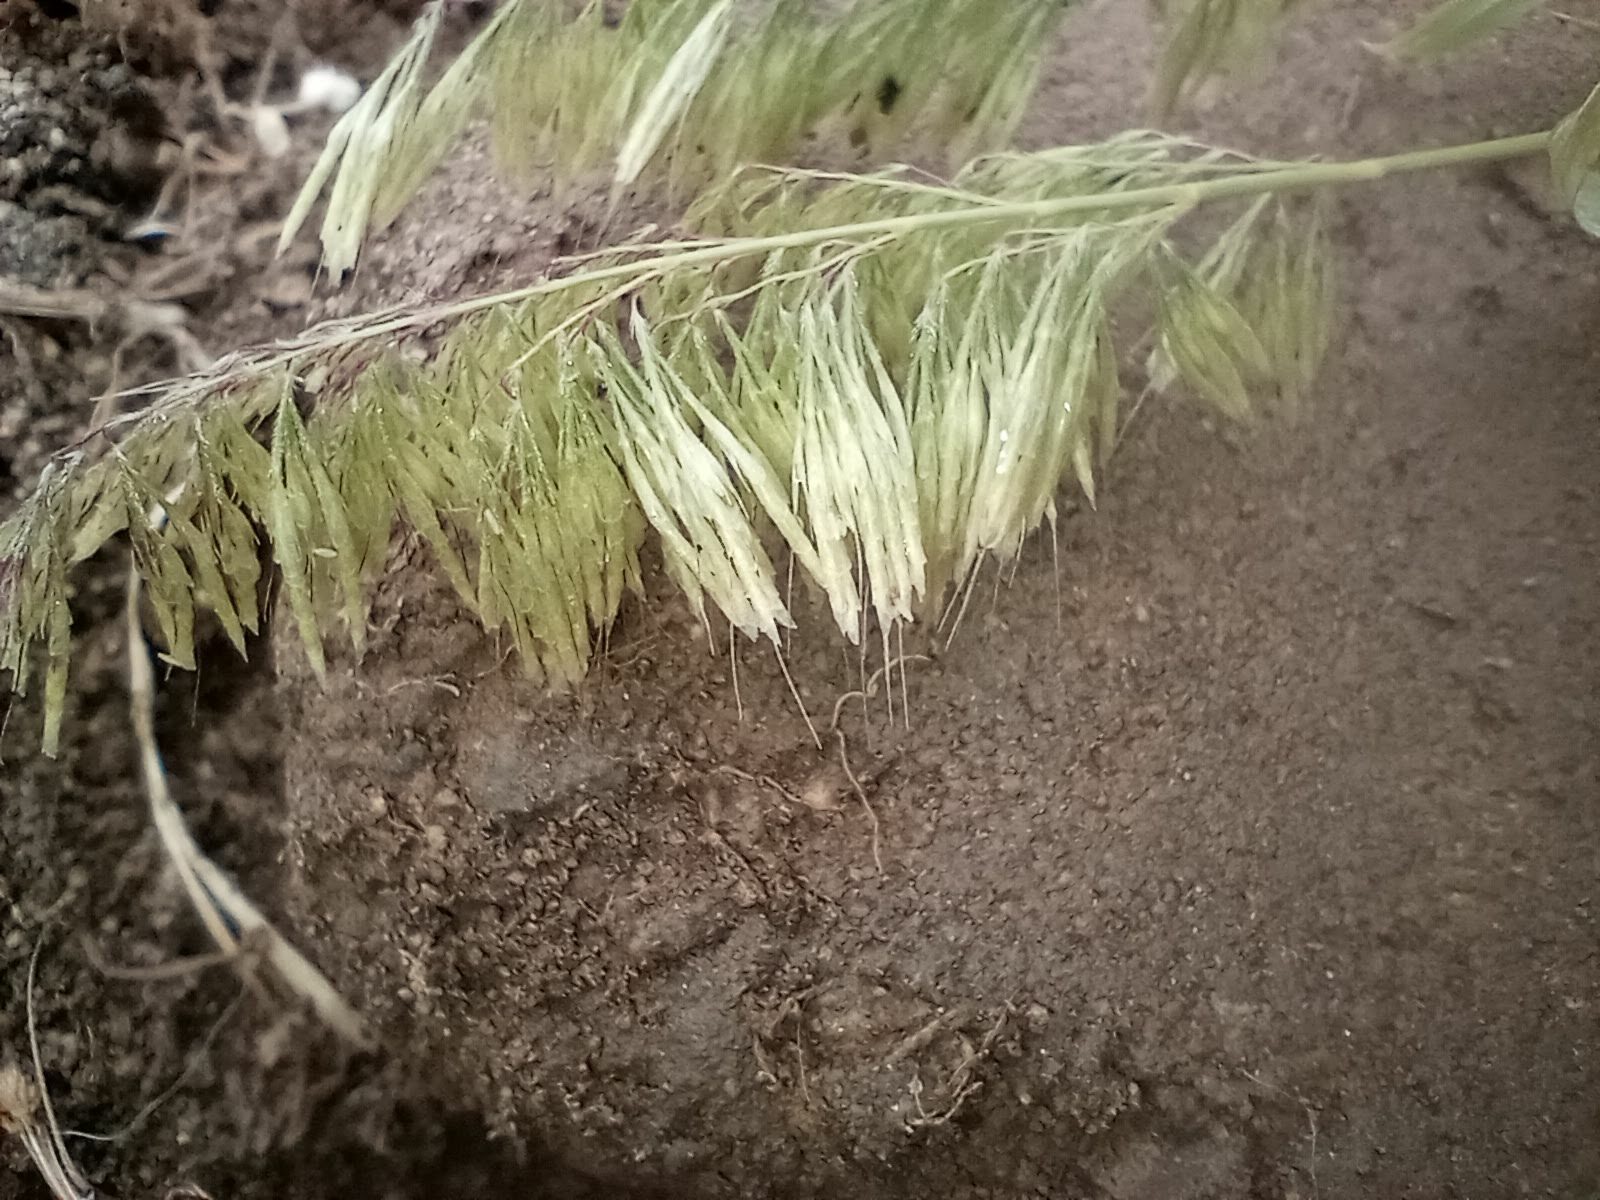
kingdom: Plantae
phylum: Tracheophyta
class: Liliopsida
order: Poales
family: Poaceae
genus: Lamarckia
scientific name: Lamarckia aurea
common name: Golden dog's-tail
